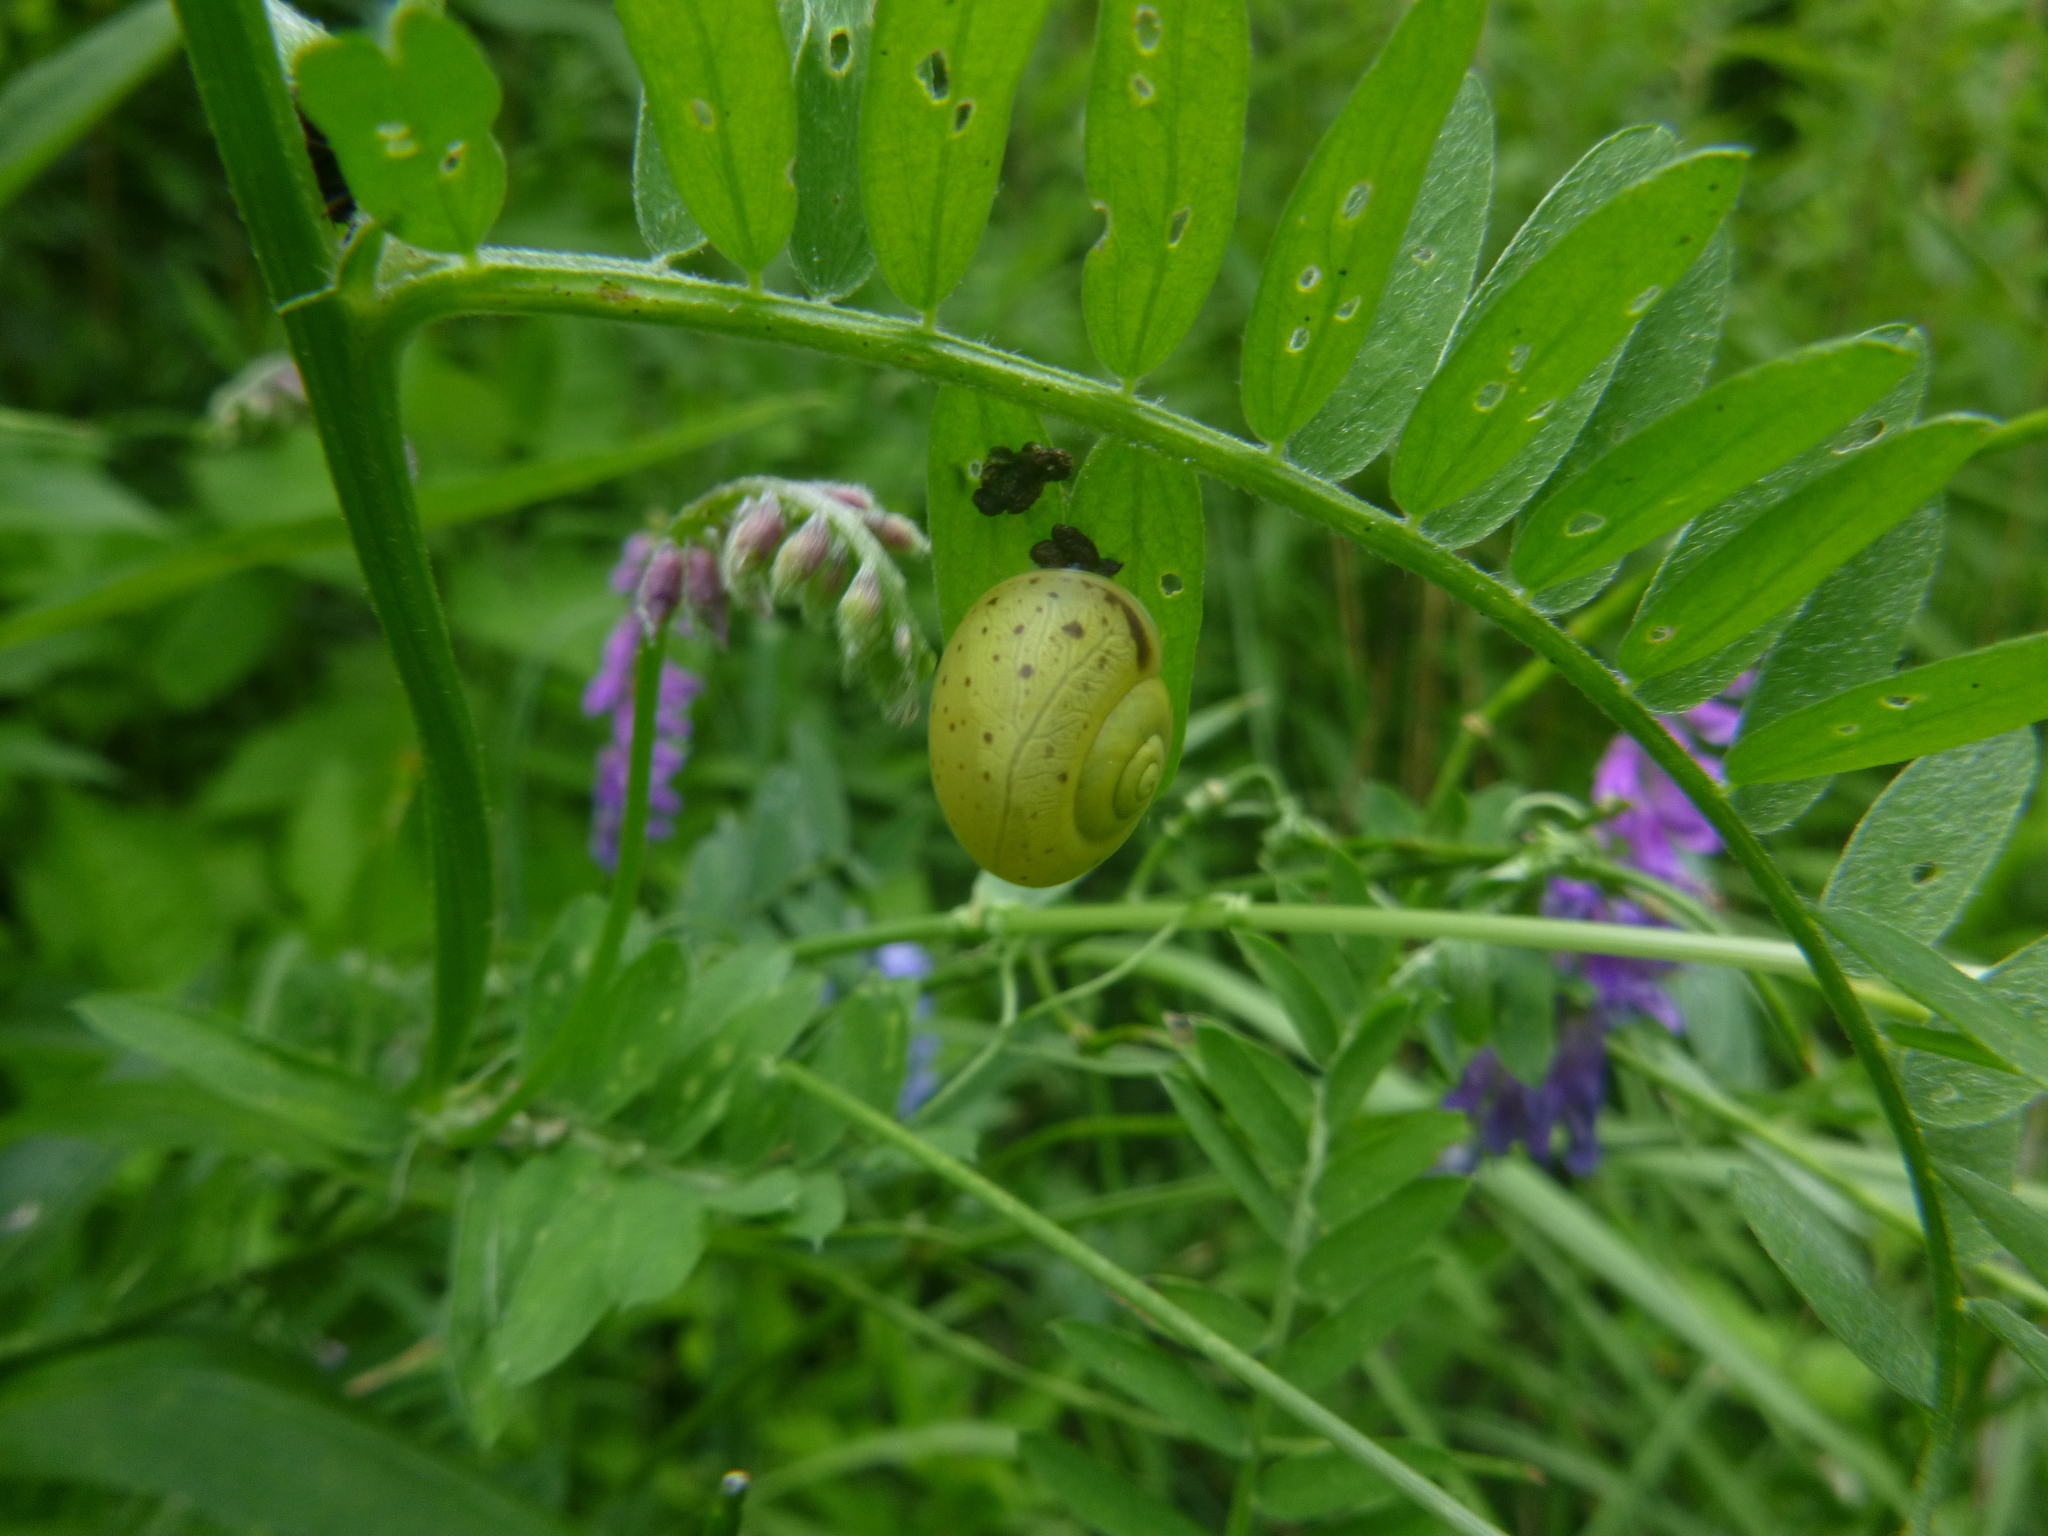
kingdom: Animalia
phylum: Mollusca
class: Gastropoda
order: Stylommatophora
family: Camaenidae
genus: Fruticicola
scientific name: Fruticicola fruticum
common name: Bush snail
